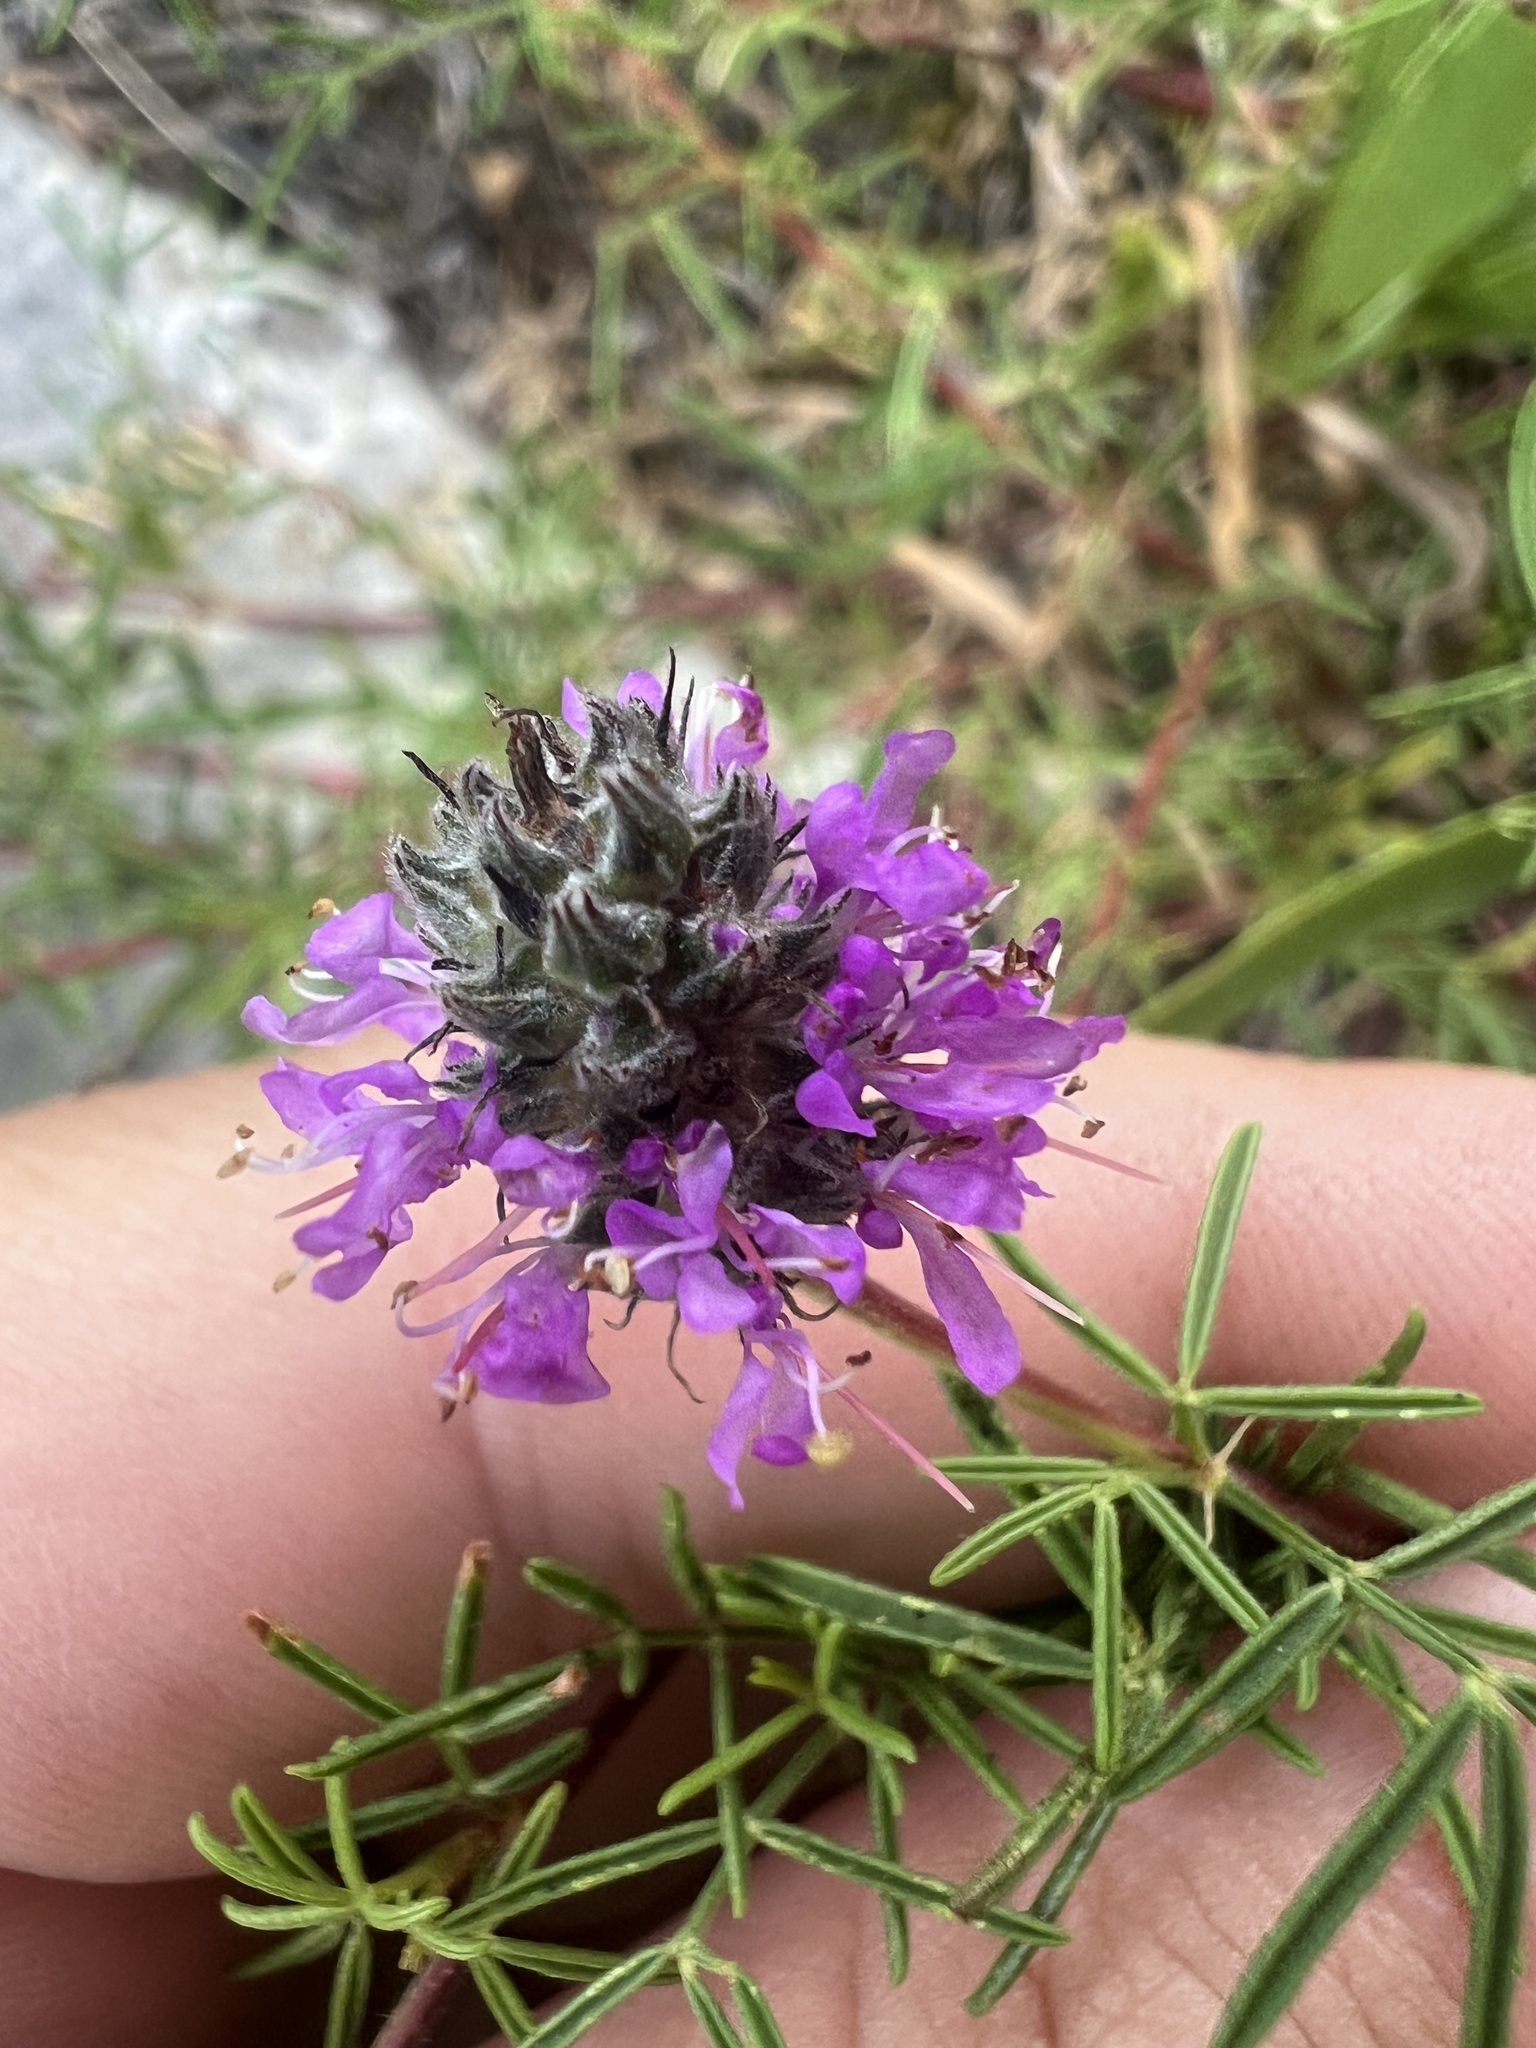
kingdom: Plantae
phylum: Tracheophyta
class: Magnoliopsida
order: Fabales
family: Fabaceae
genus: Dalea
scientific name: Dalea gattingeri
